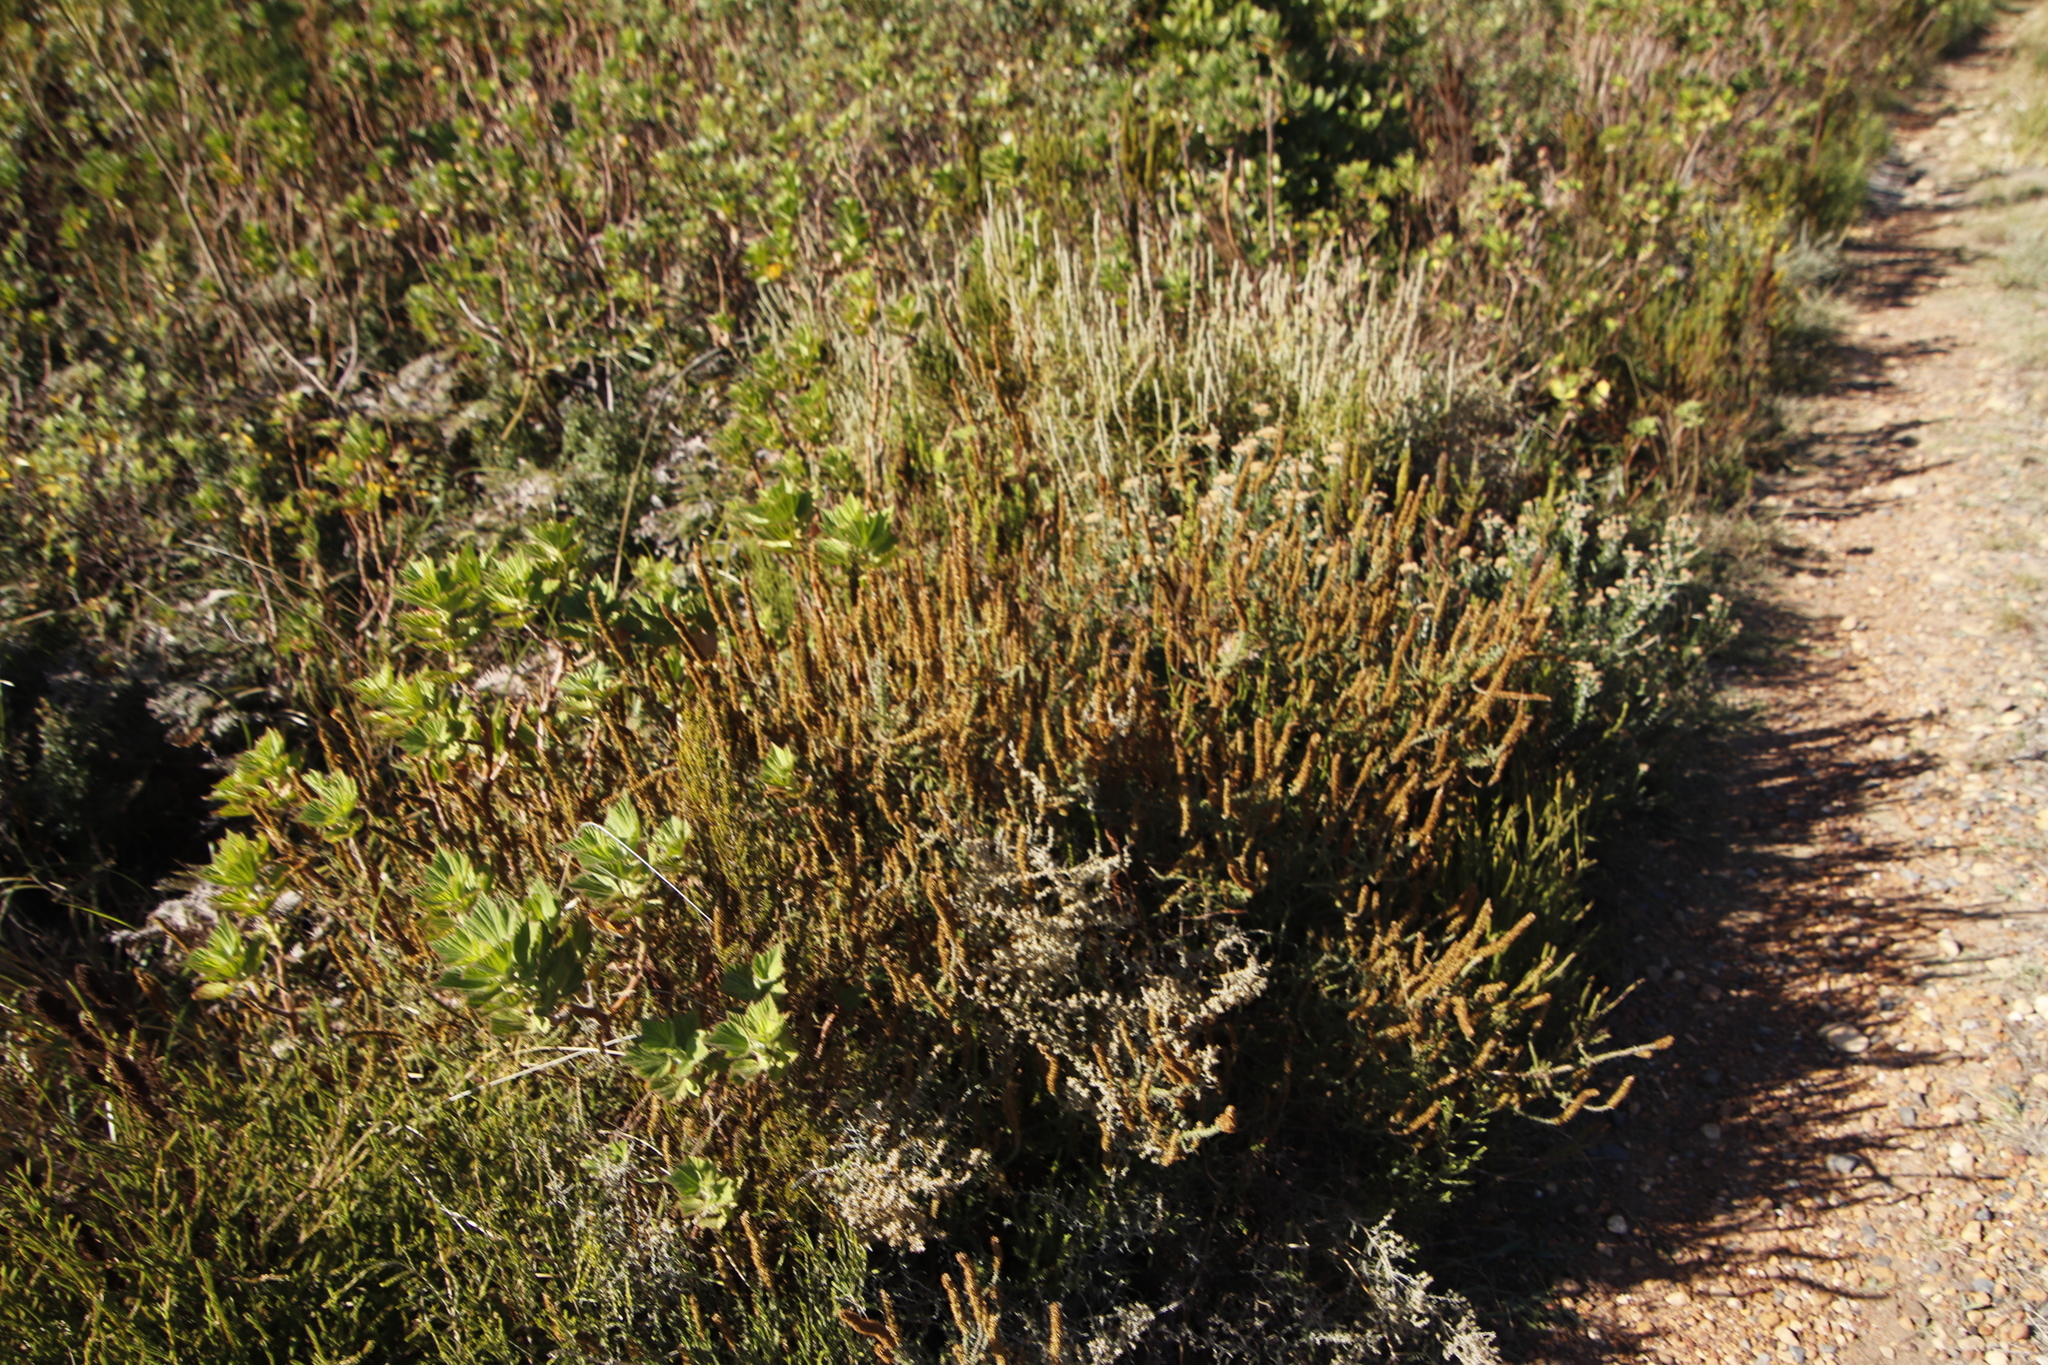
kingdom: Plantae
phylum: Tracheophyta
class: Magnoliopsida
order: Asterales
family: Asteraceae
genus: Seriphium
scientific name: Seriphium cinereum
